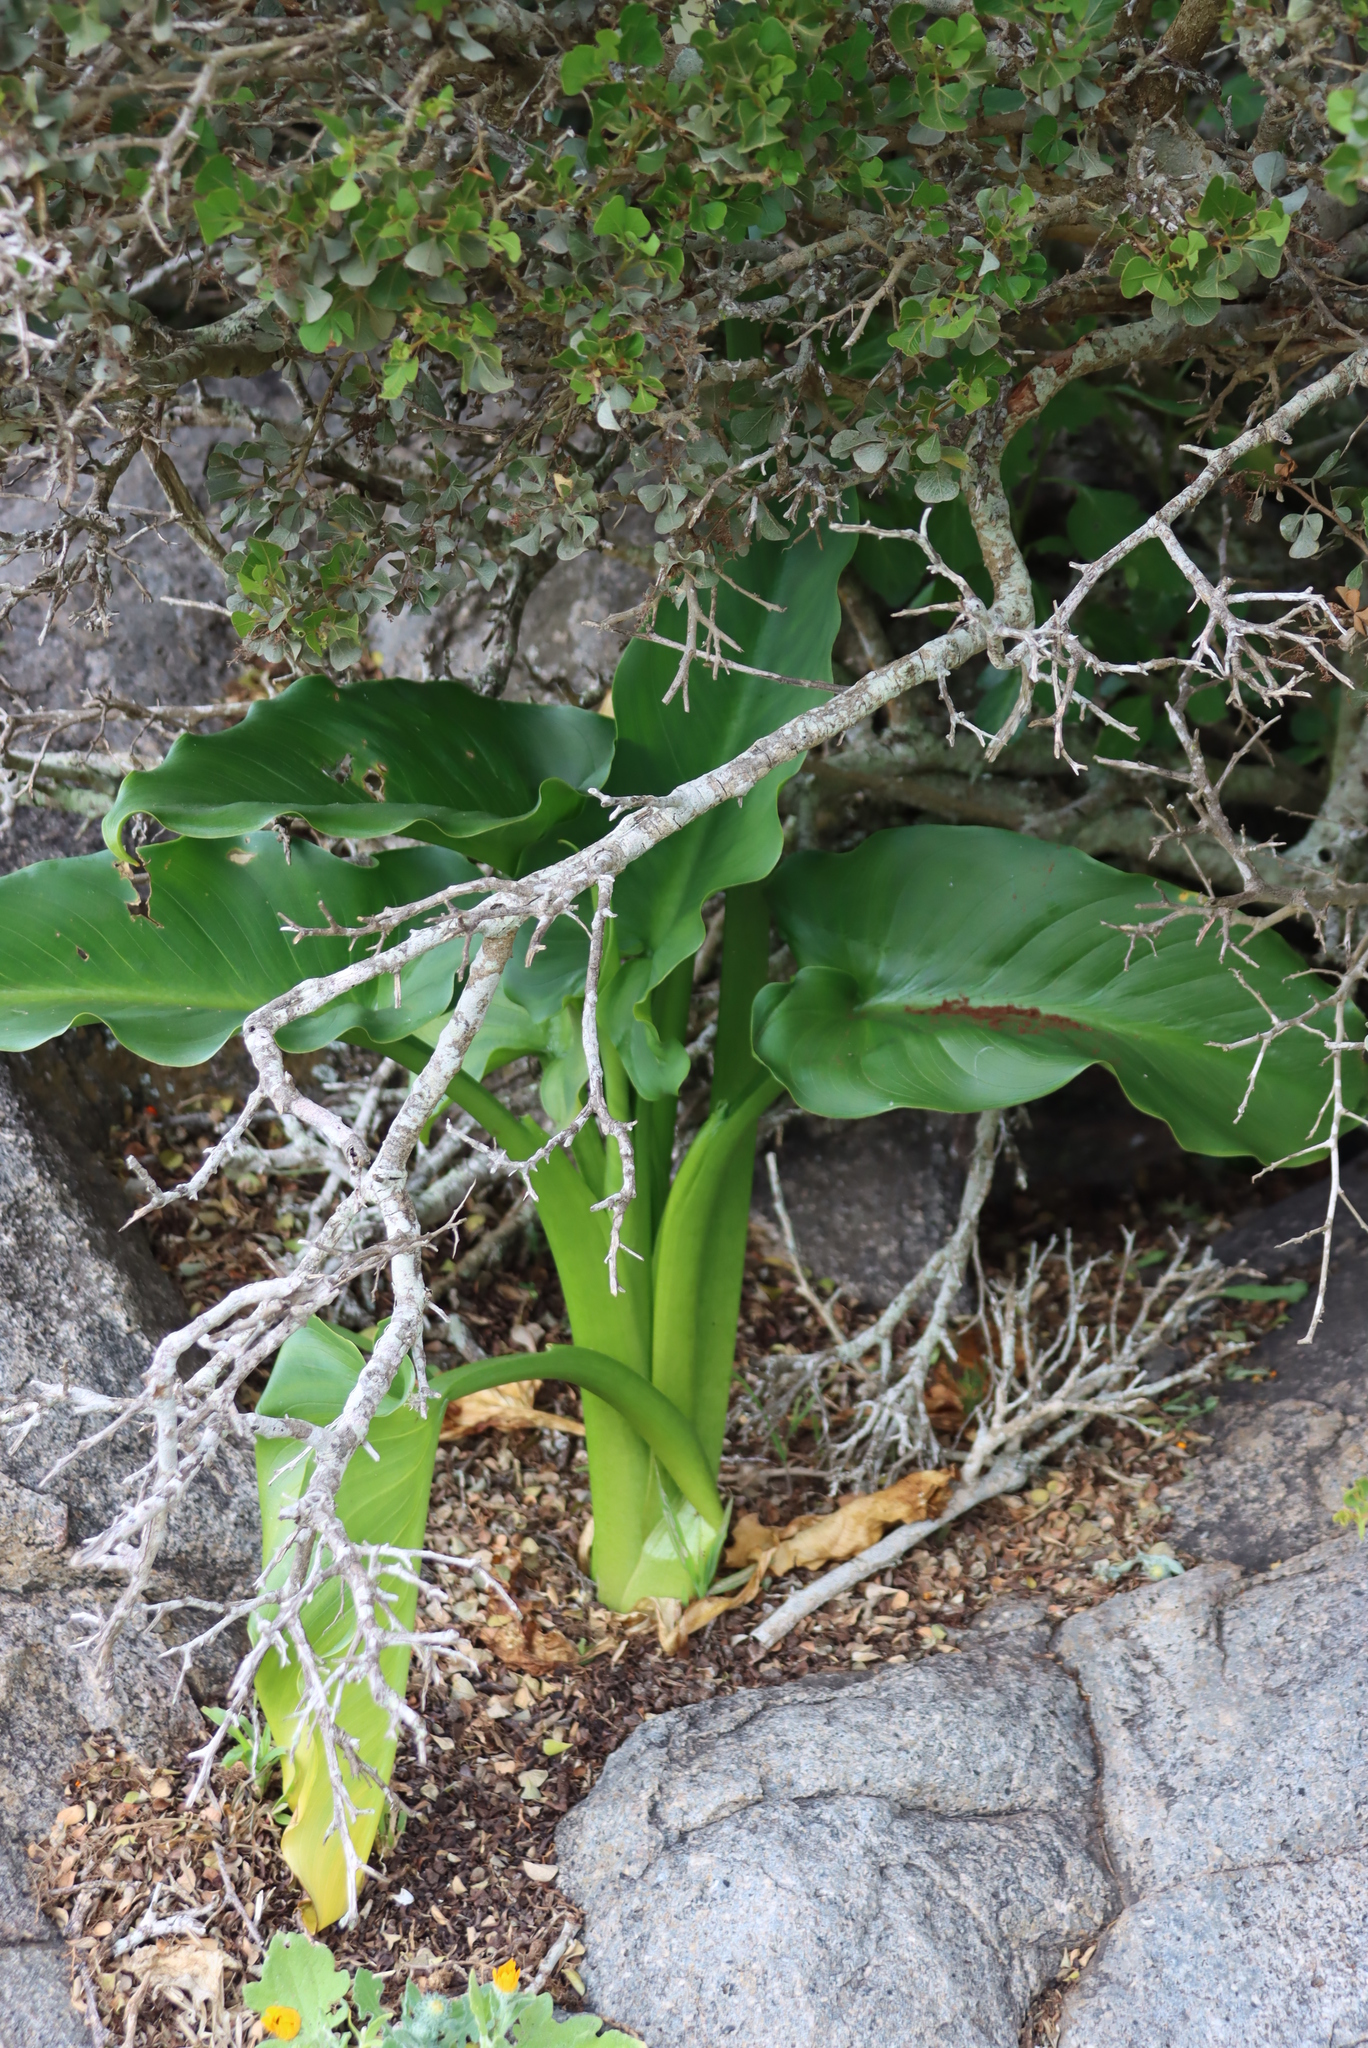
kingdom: Plantae
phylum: Tracheophyta
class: Liliopsida
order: Alismatales
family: Araceae
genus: Zantedeschia
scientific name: Zantedeschia aethiopica
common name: Altar-lily
